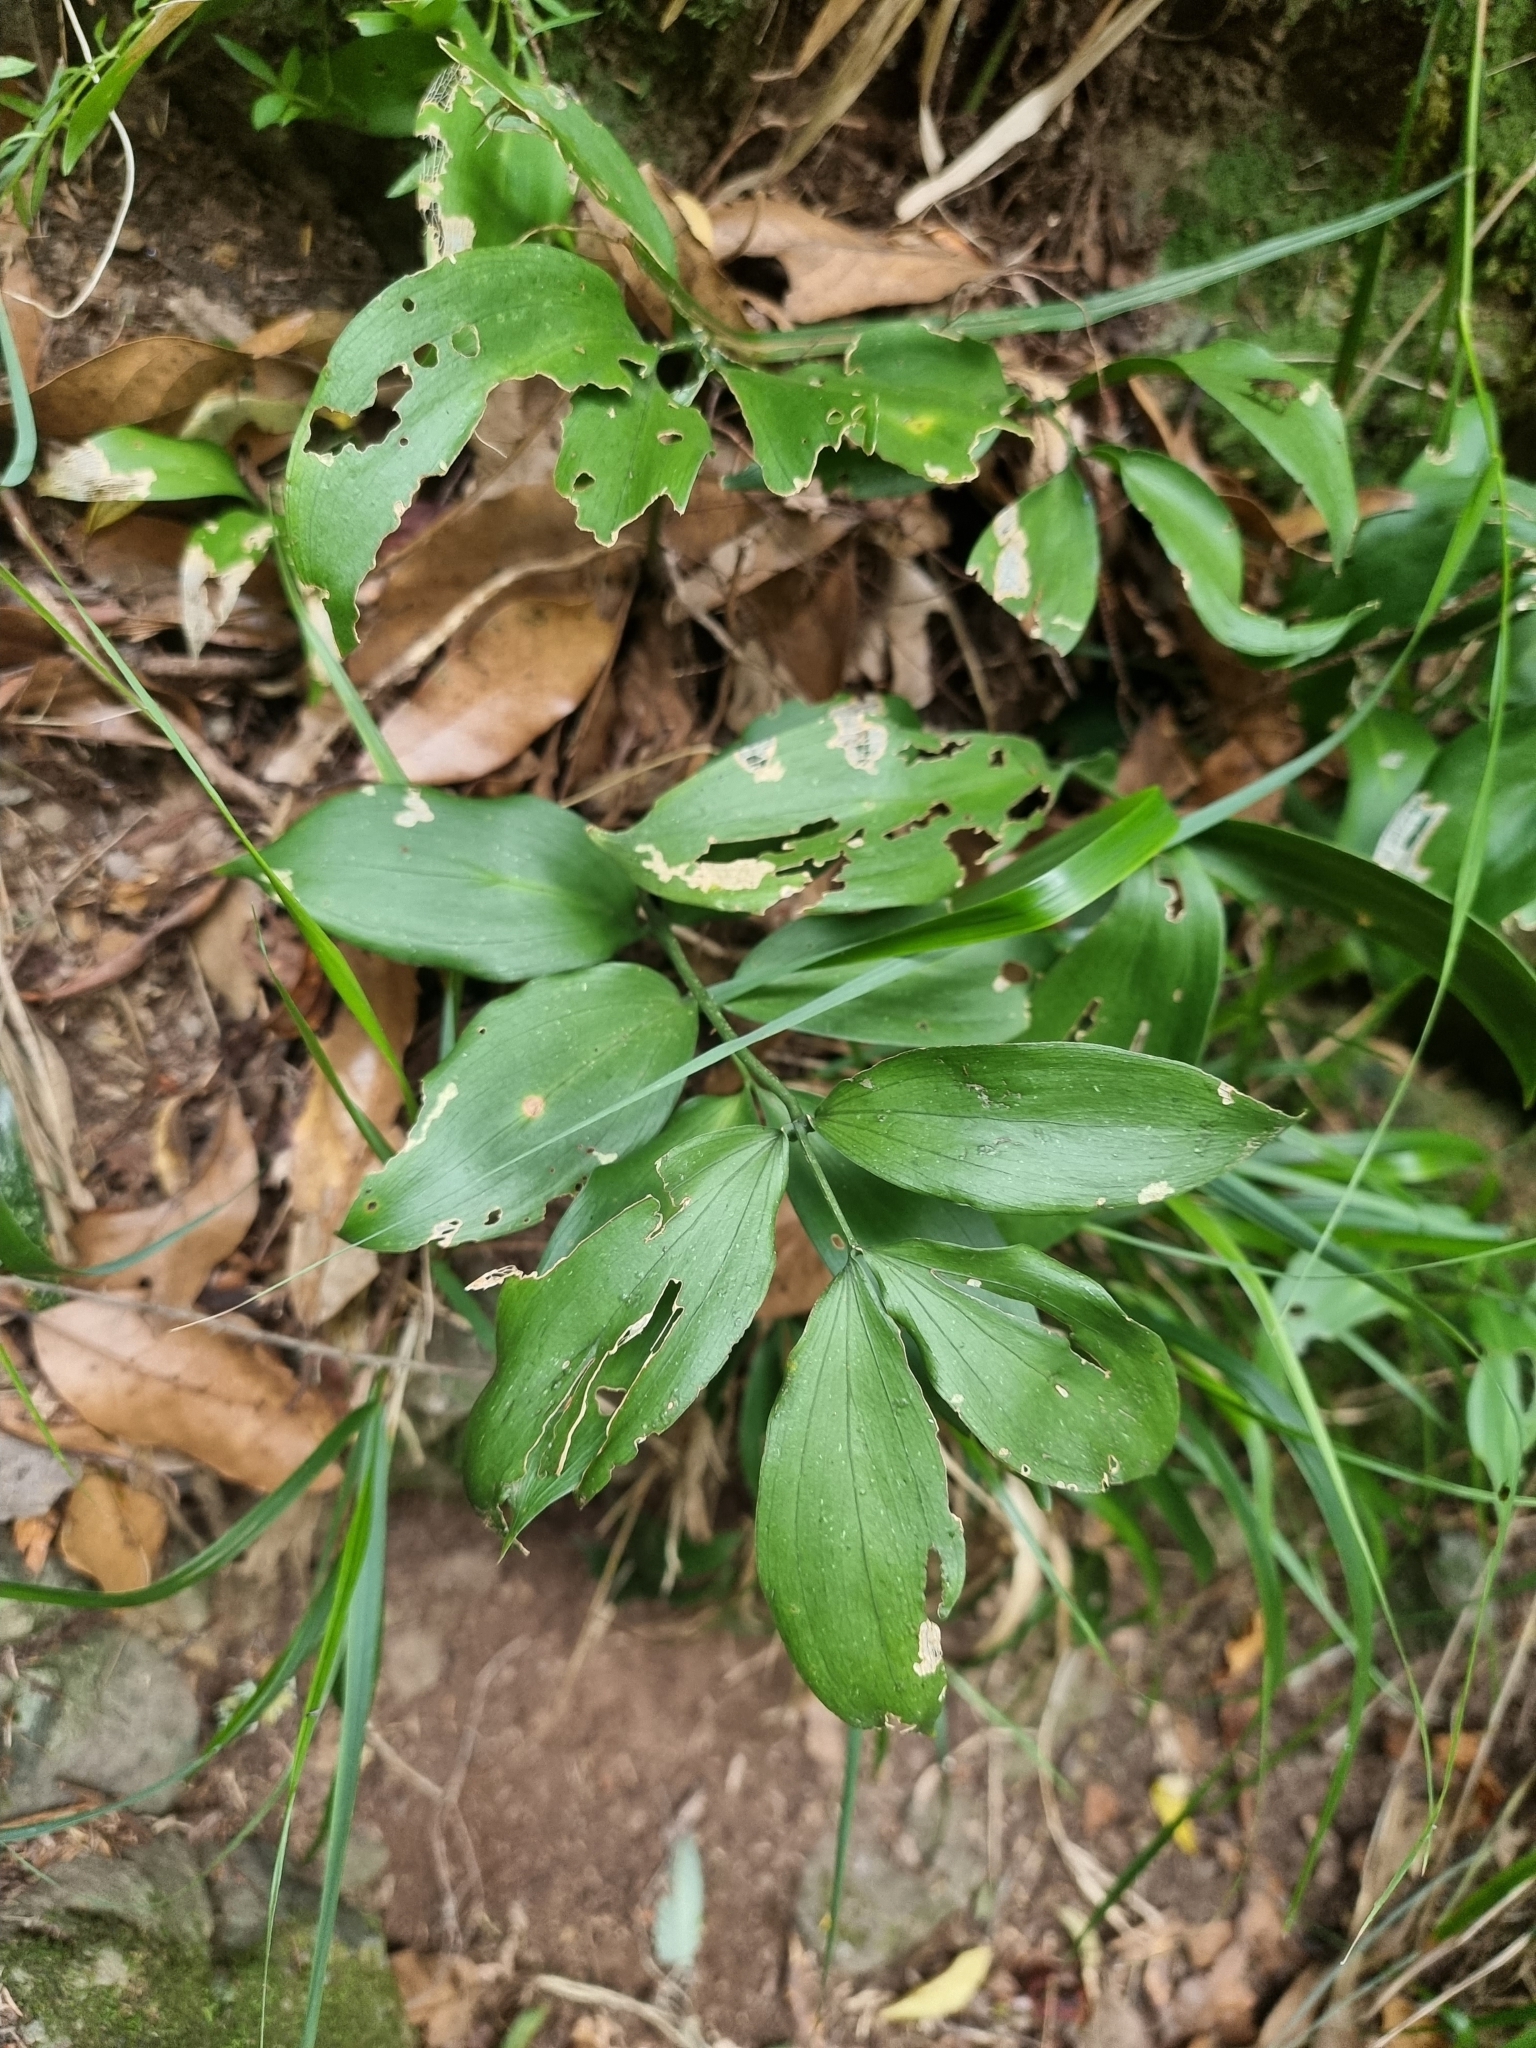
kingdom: Plantae
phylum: Tracheophyta
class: Liliopsida
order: Asparagales
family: Asparagaceae
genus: Ruscus
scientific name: Ruscus streptophyllus
